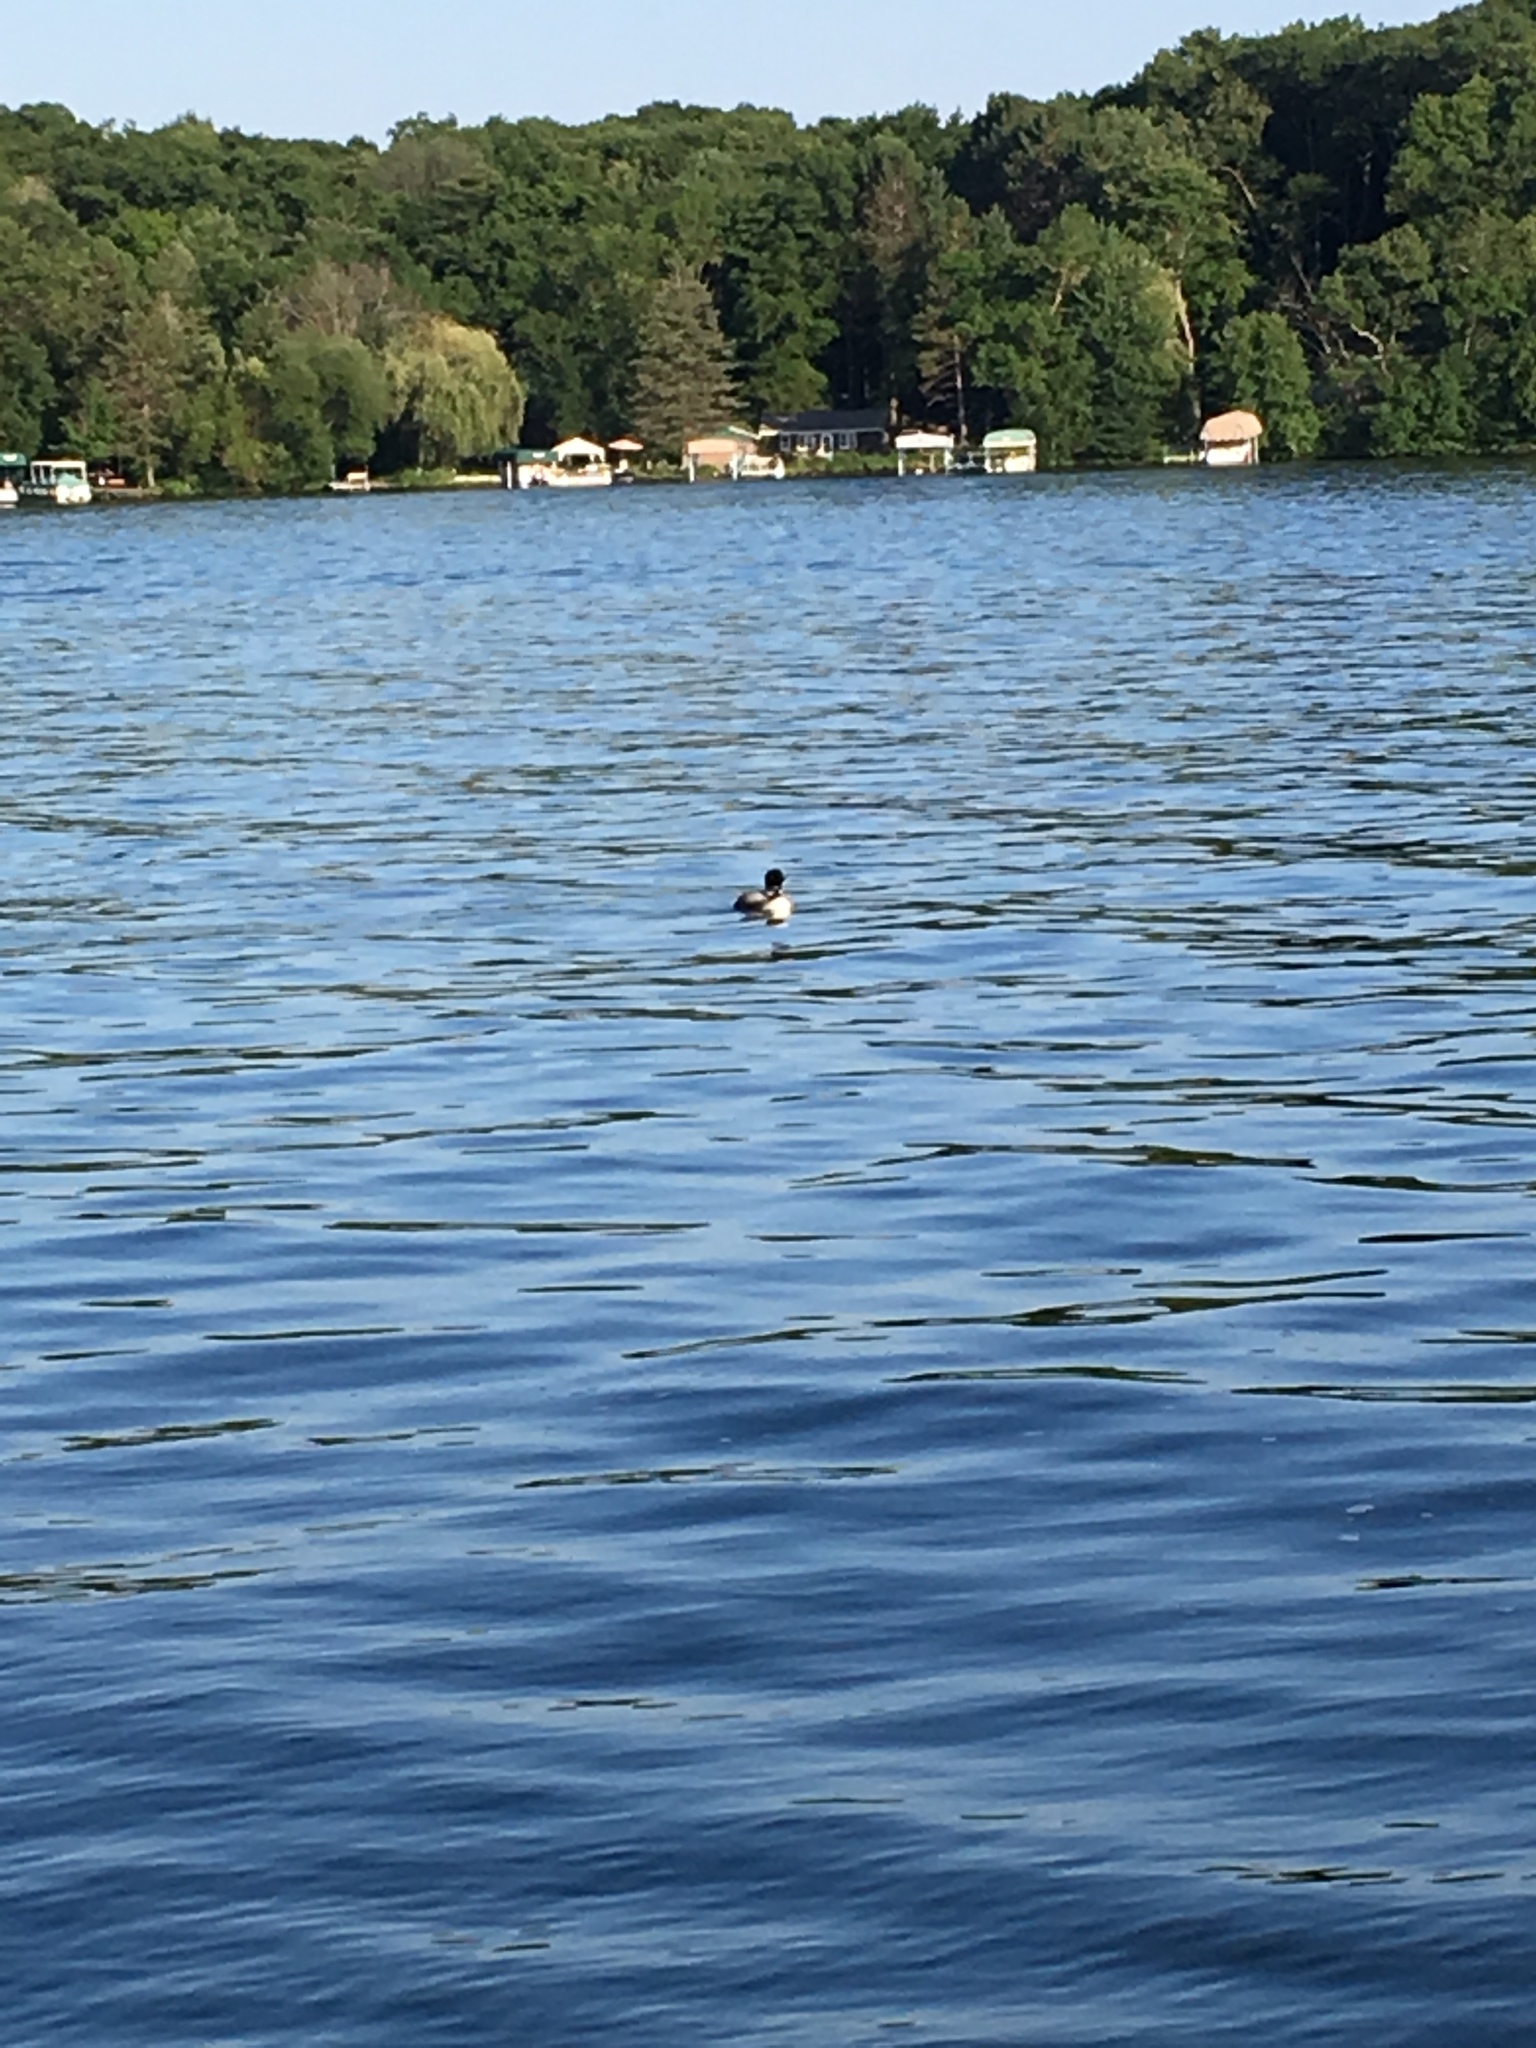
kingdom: Animalia
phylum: Chordata
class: Aves
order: Gaviiformes
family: Gaviidae
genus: Gavia
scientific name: Gavia immer
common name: Common loon
